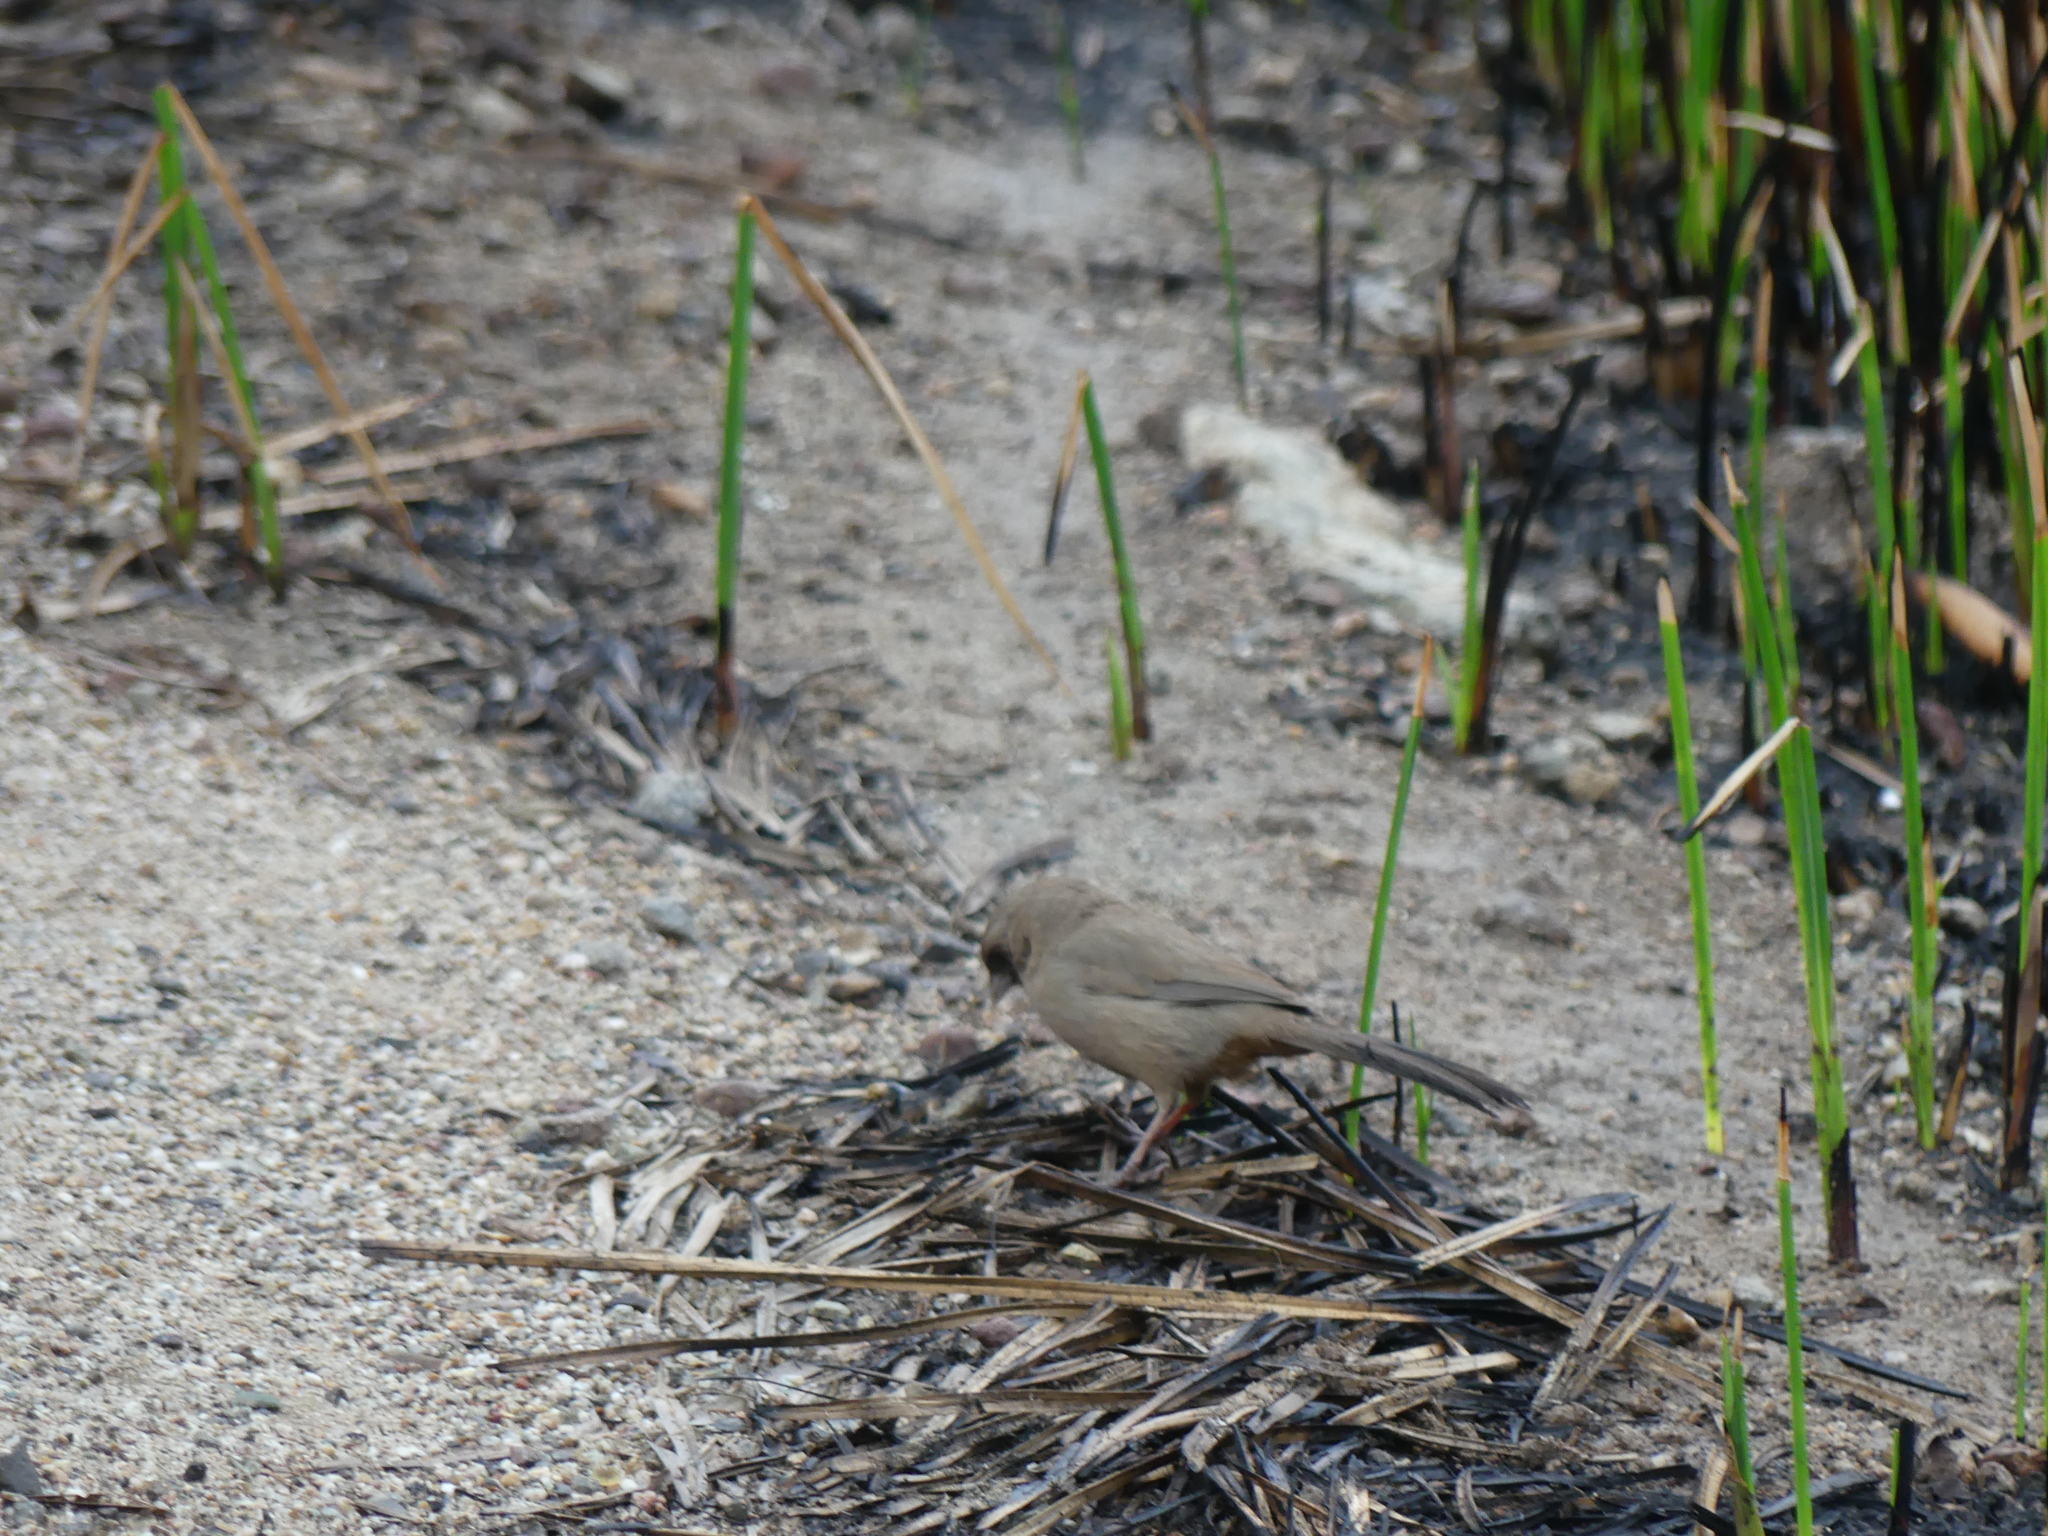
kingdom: Animalia
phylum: Chordata
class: Aves
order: Passeriformes
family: Passerellidae
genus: Melozone
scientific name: Melozone aberti
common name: Abert's towhee
